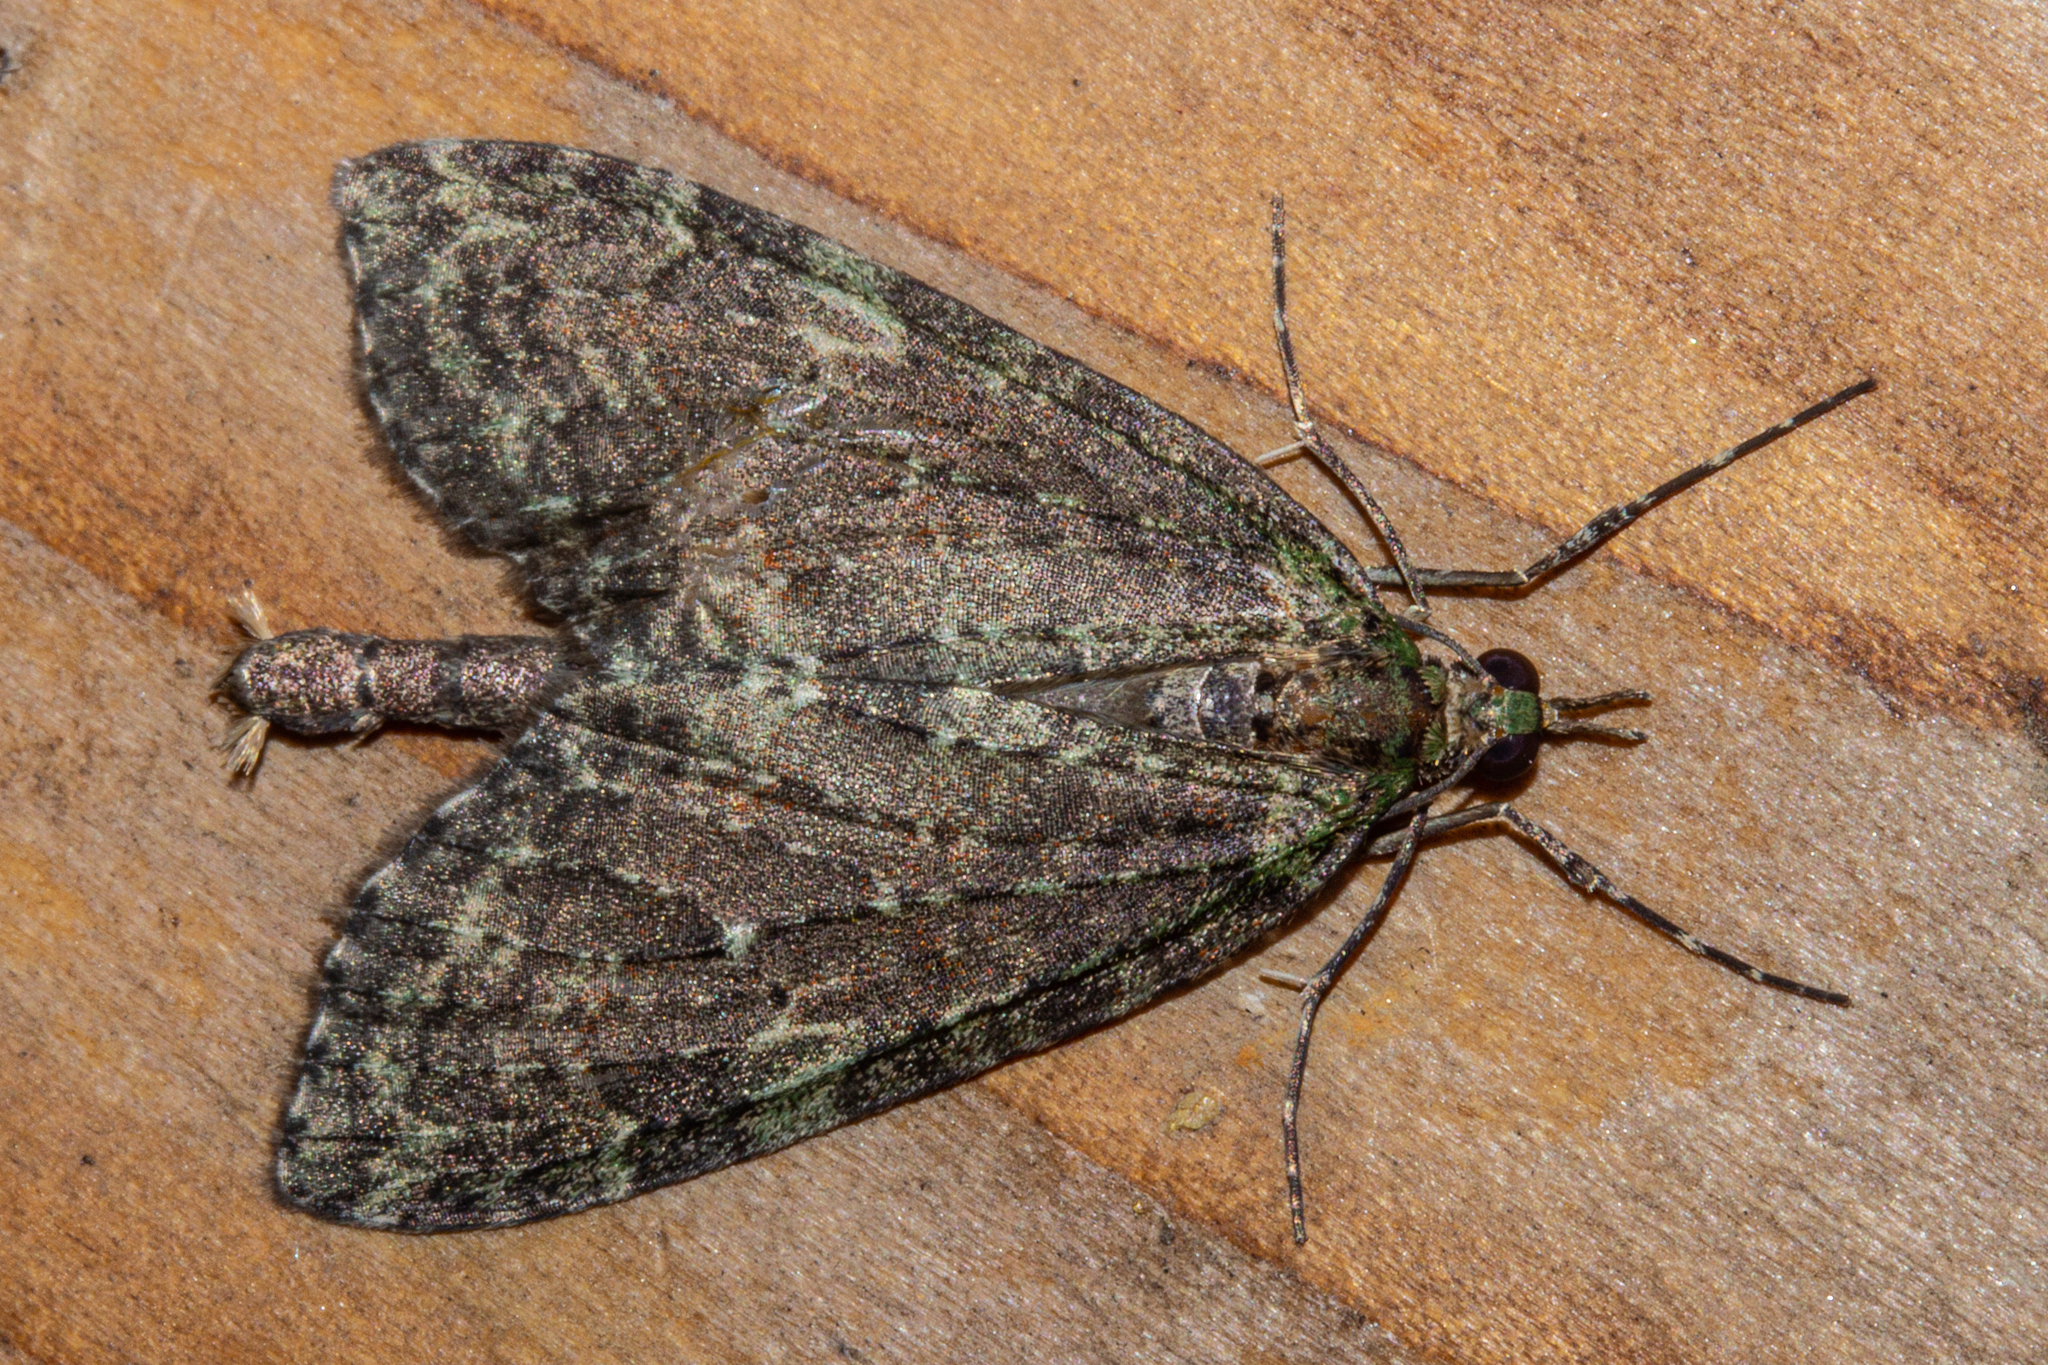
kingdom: Animalia
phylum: Arthropoda
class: Insecta
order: Lepidoptera
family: Geometridae
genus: Tatosoma
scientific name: Tatosoma transitaria
